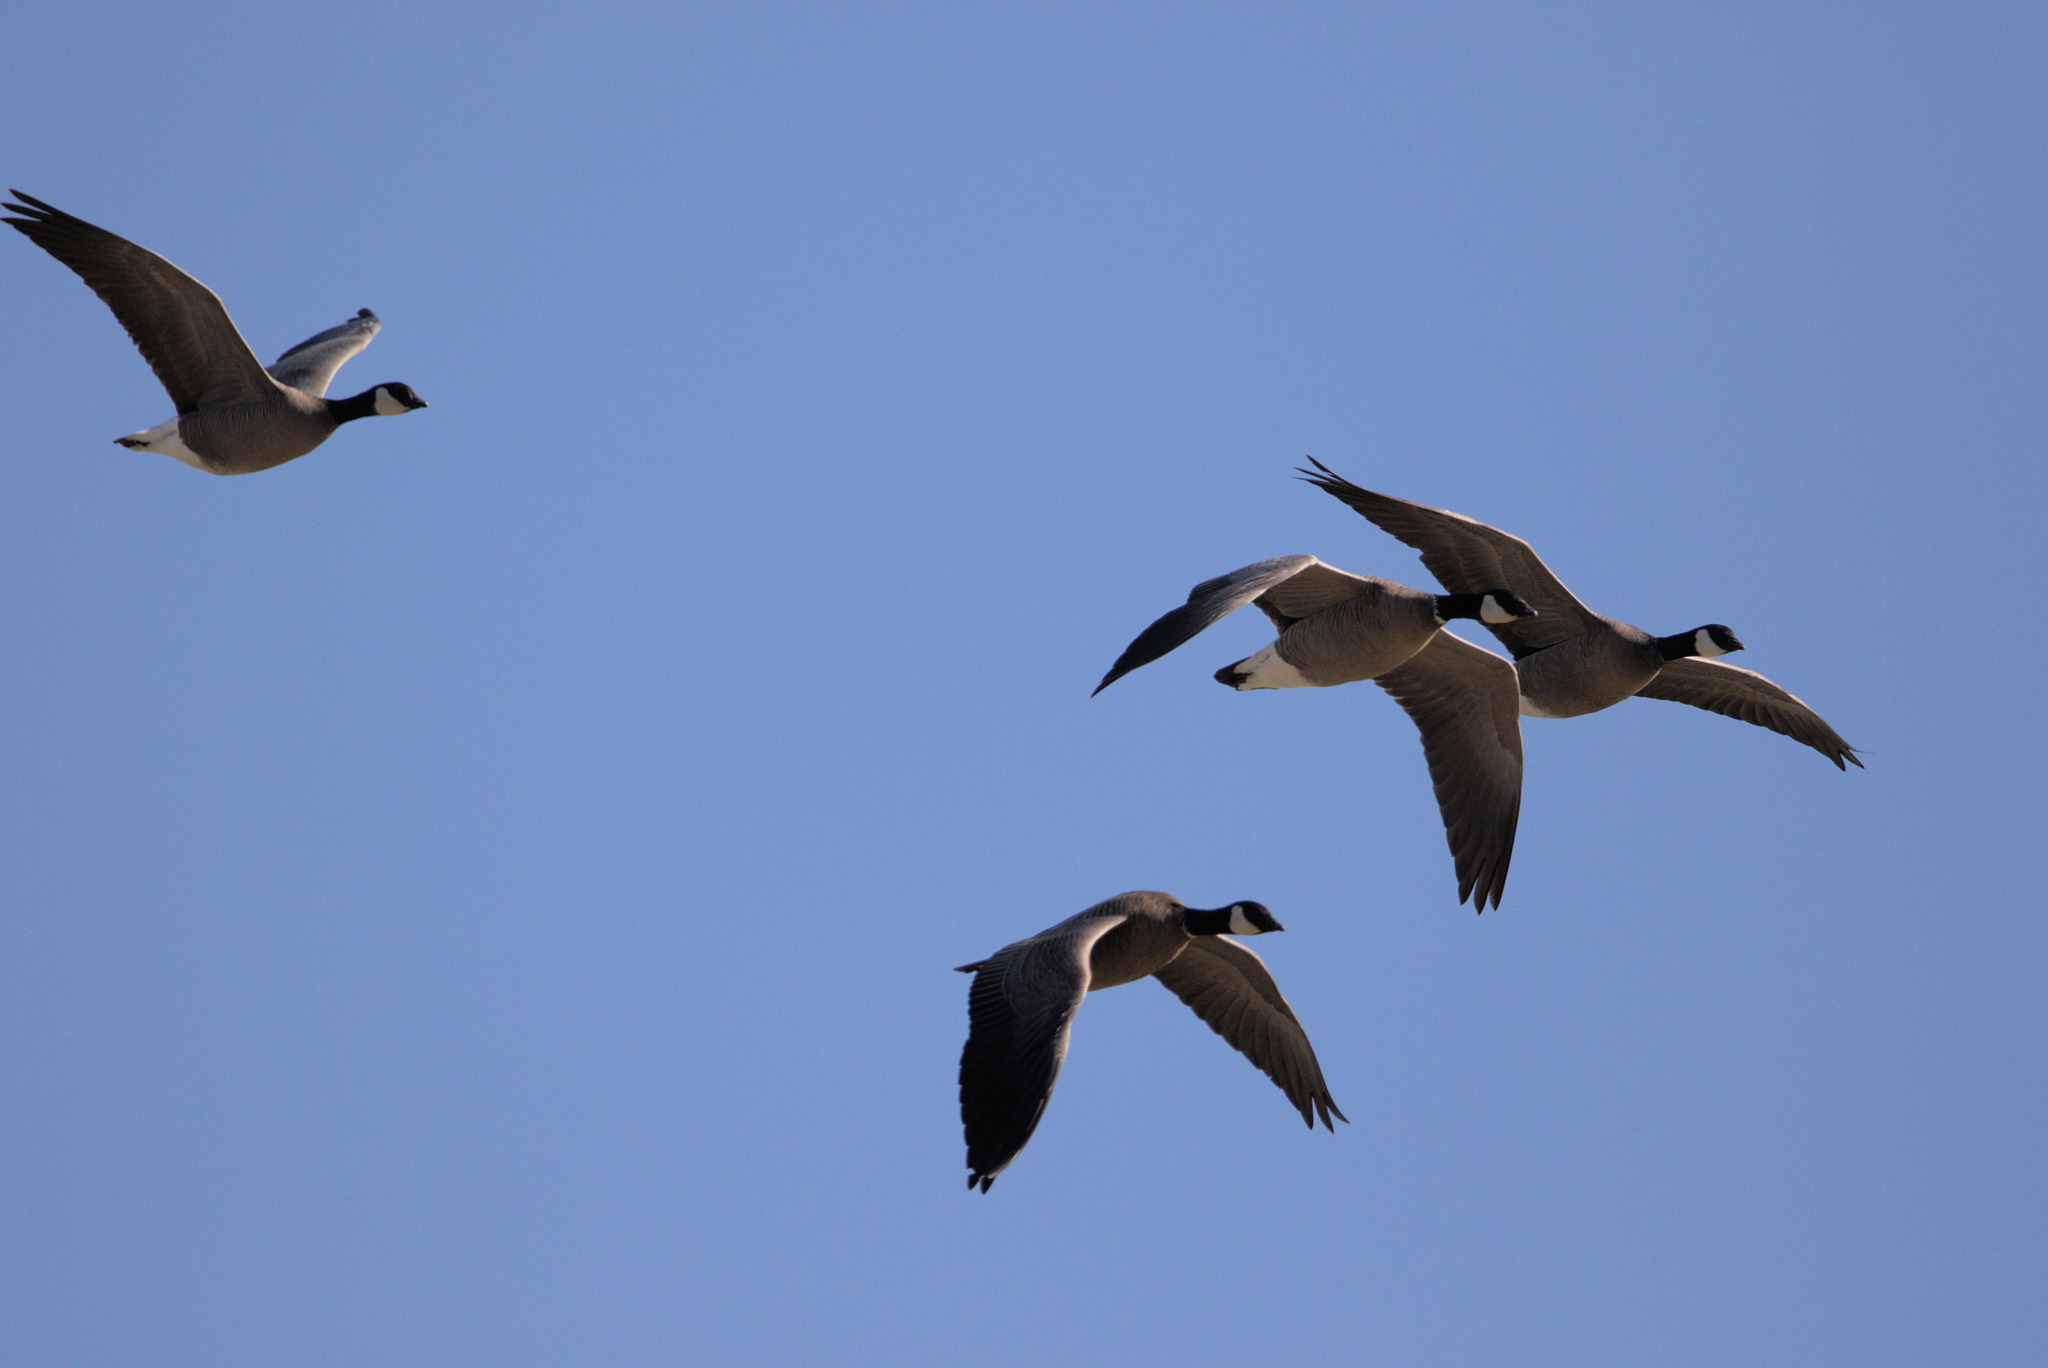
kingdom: Animalia
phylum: Chordata
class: Aves
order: Anseriformes
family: Anatidae
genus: Branta
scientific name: Branta hutchinsii
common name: Cackling goose
